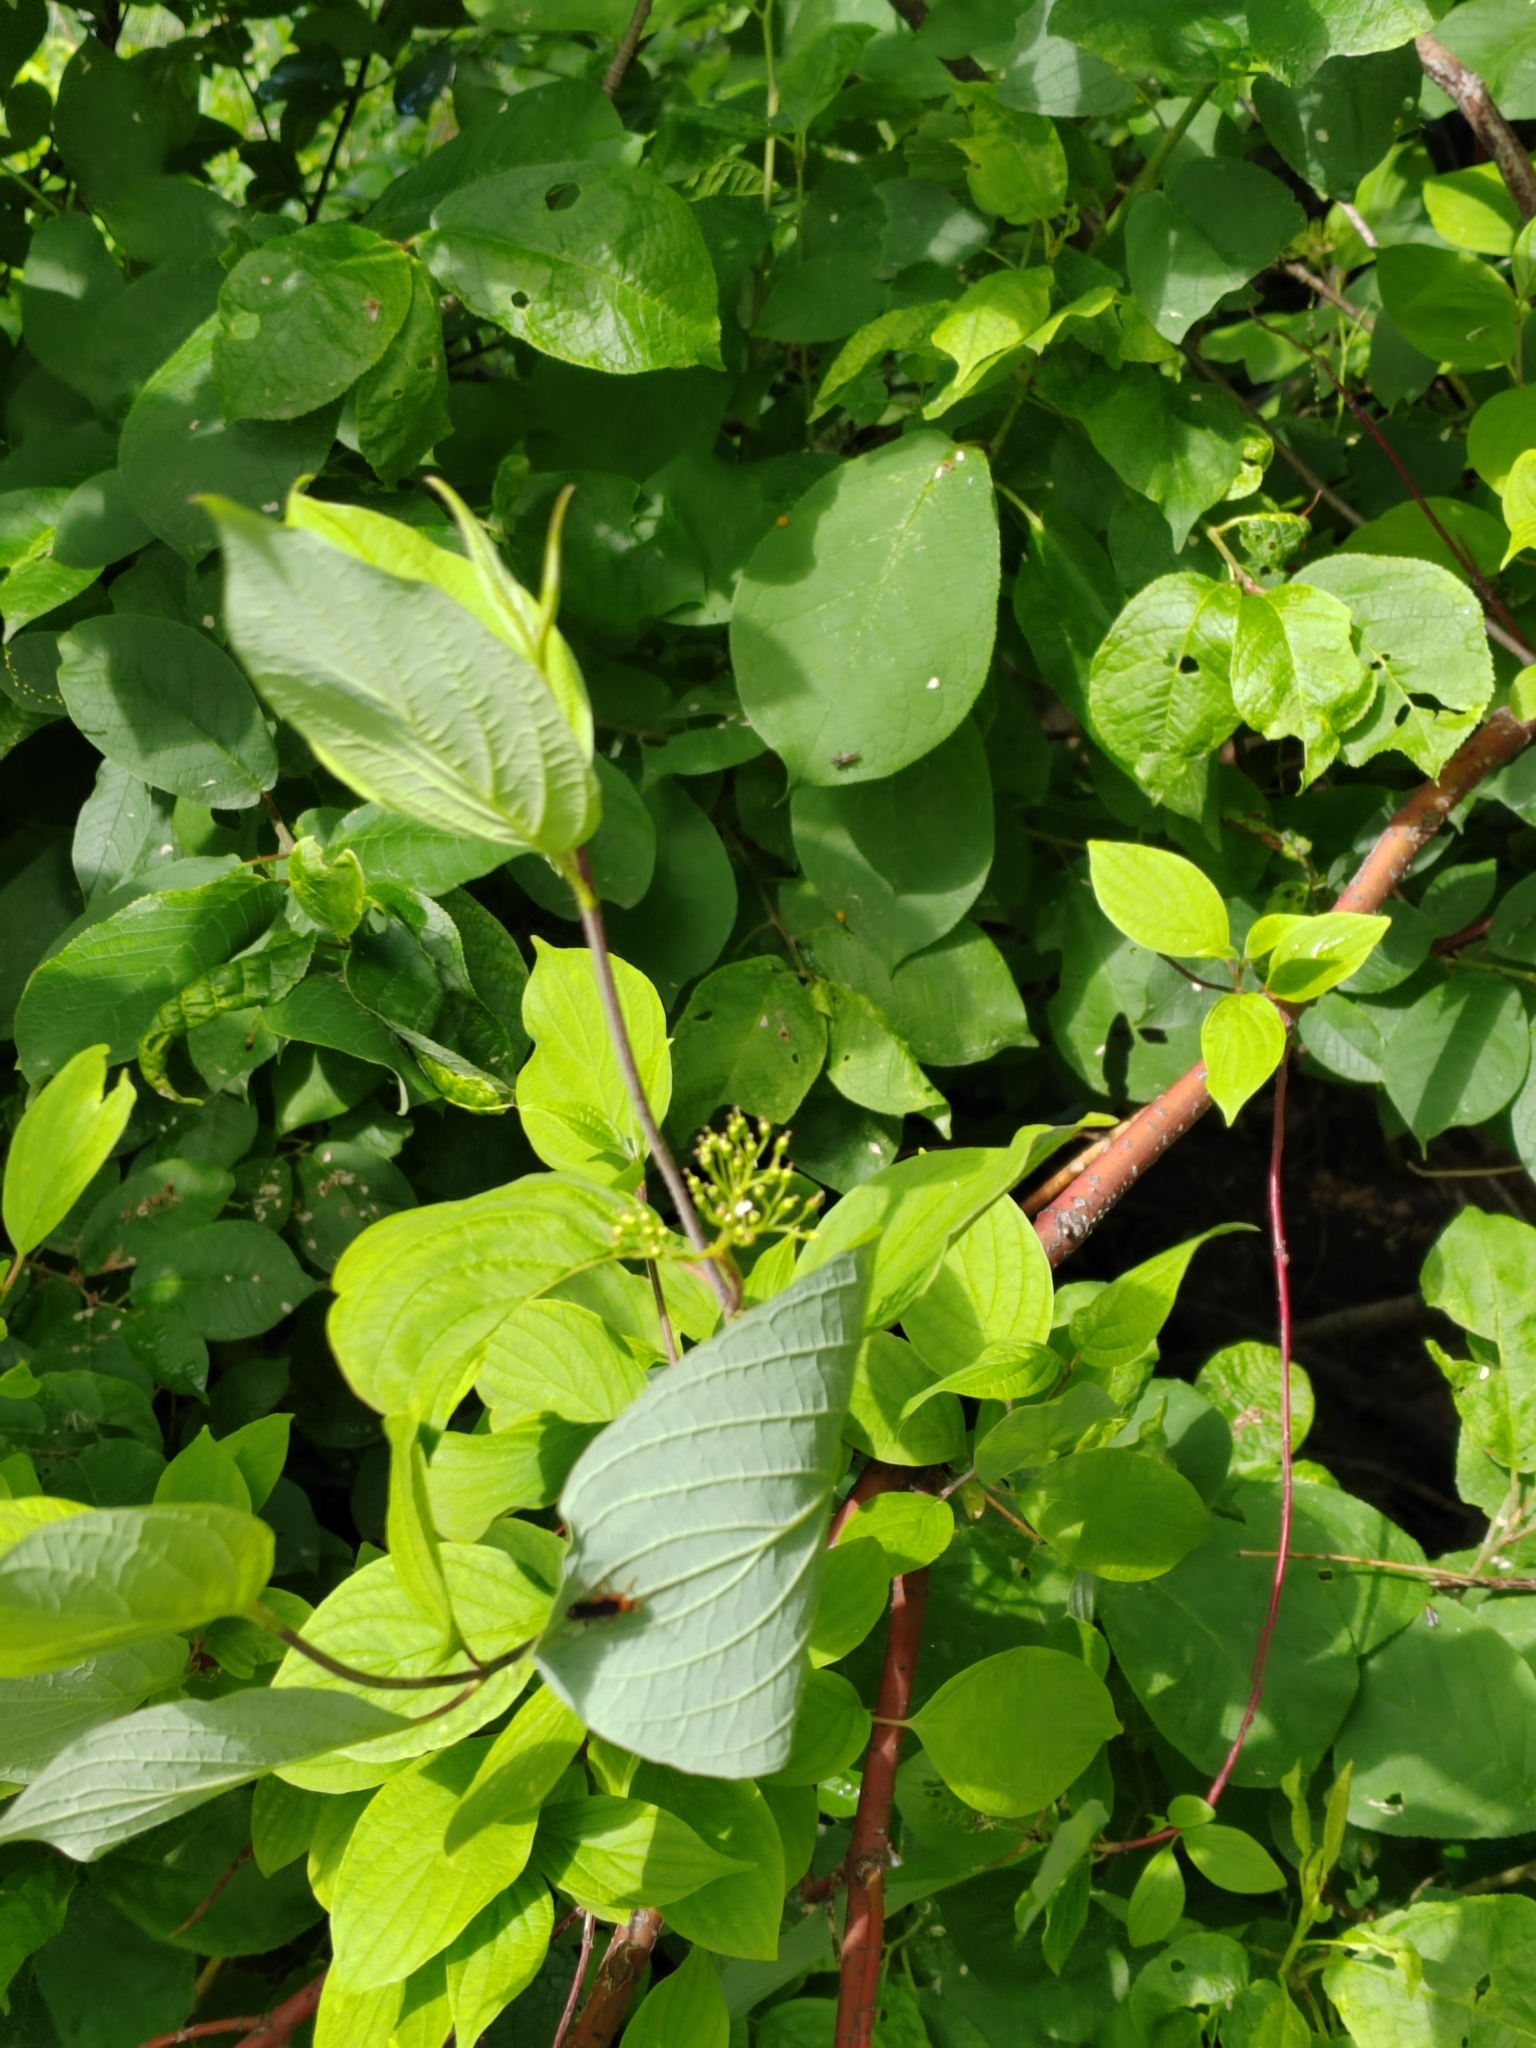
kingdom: Plantae
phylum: Tracheophyta
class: Magnoliopsida
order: Cornales
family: Cornaceae
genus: Cornus
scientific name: Cornus alba
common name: White dogwood
